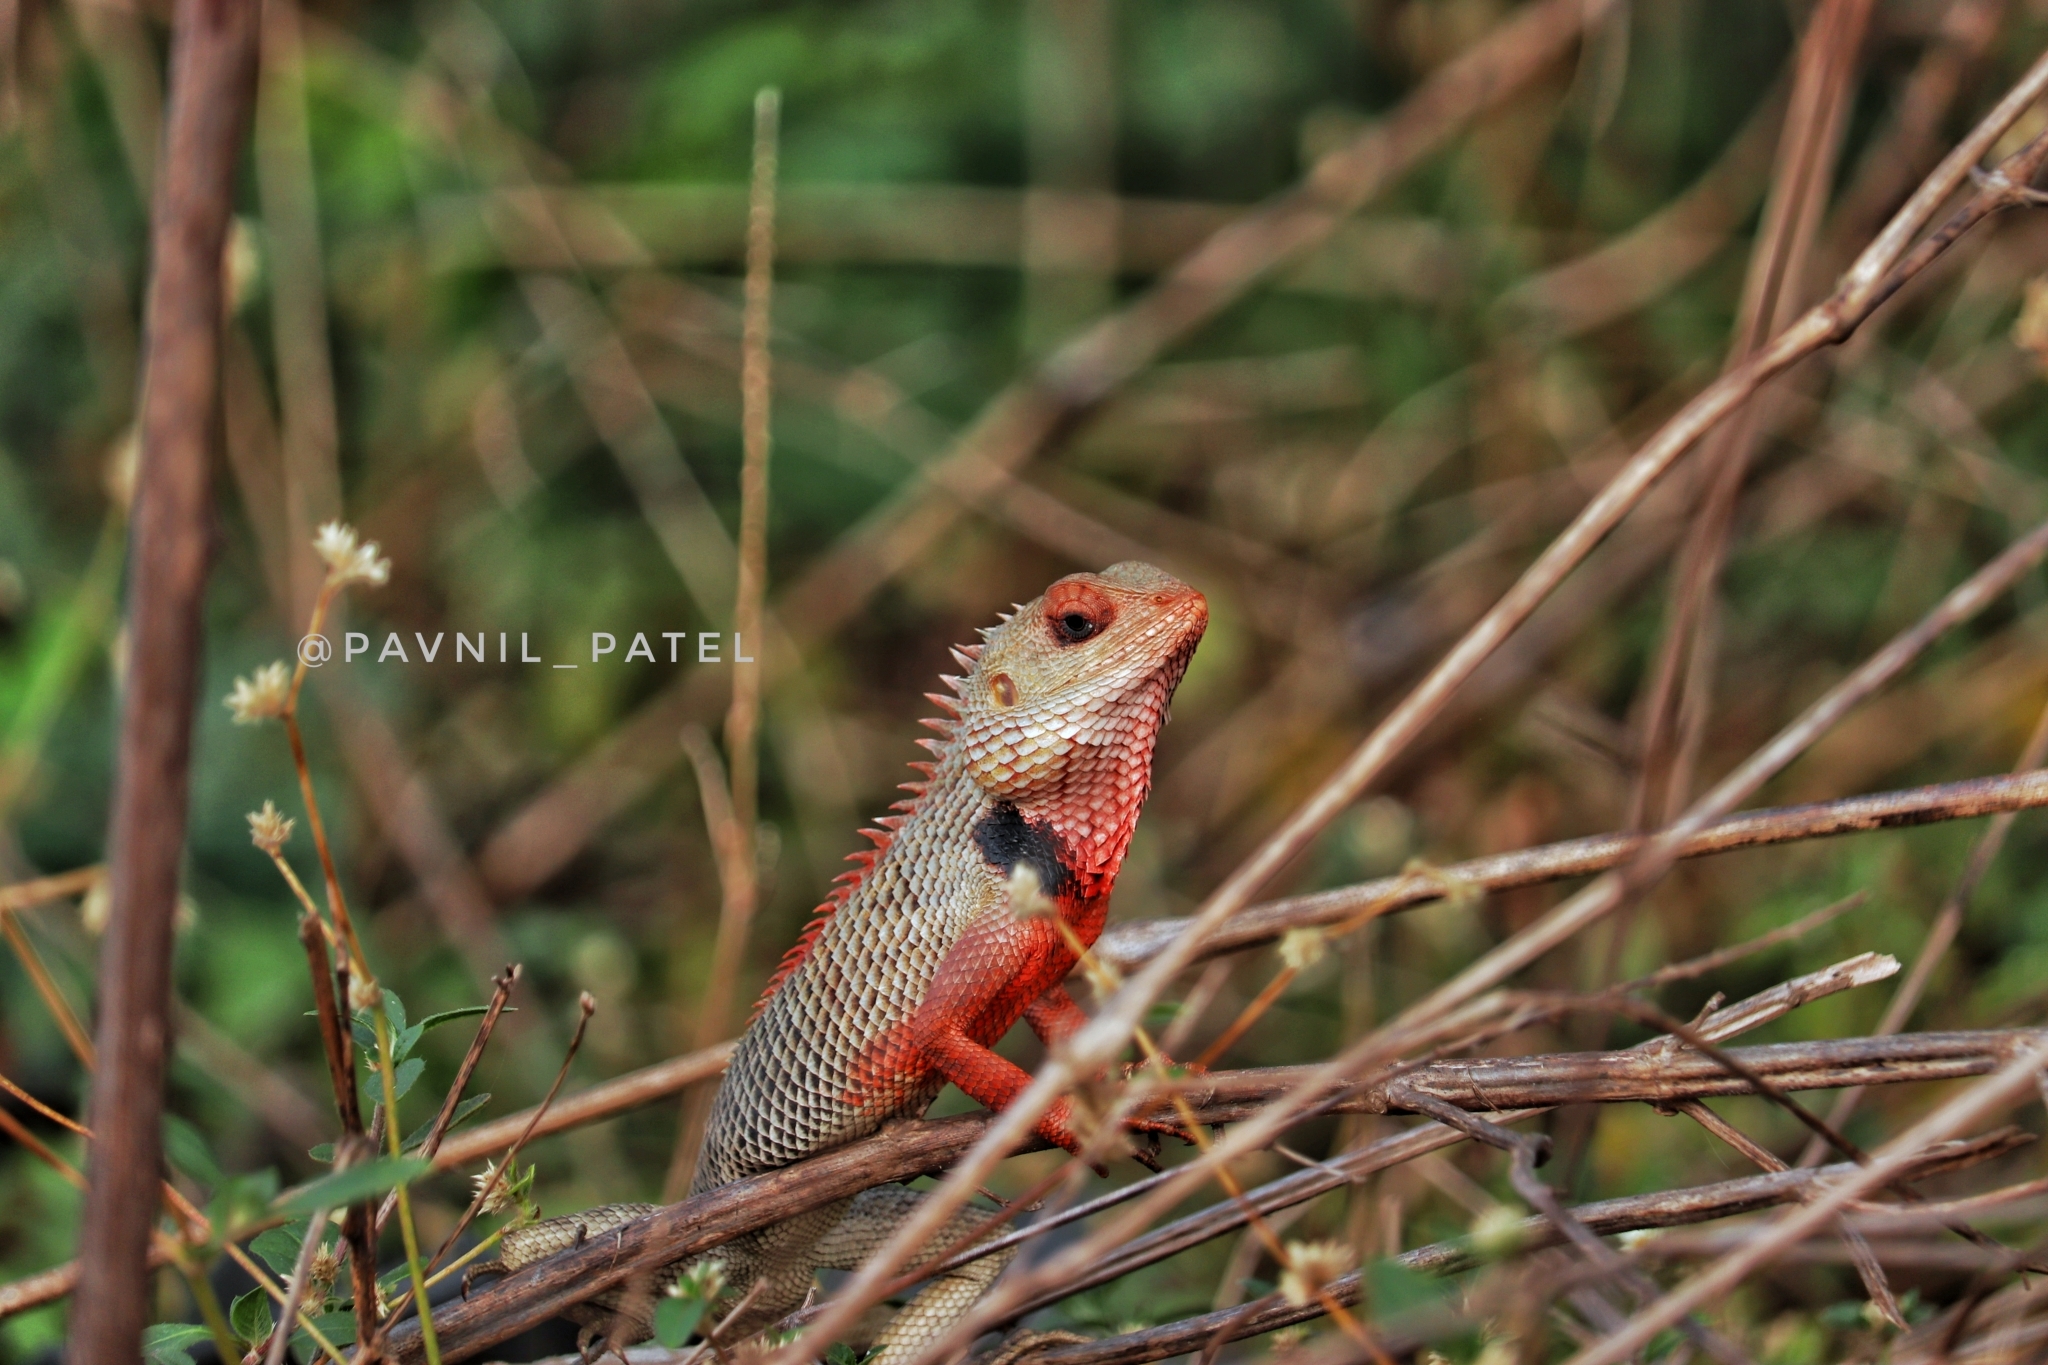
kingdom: Animalia
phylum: Chordata
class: Squamata
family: Agamidae
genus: Calotes
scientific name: Calotes versicolor
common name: Oriental garden lizard
